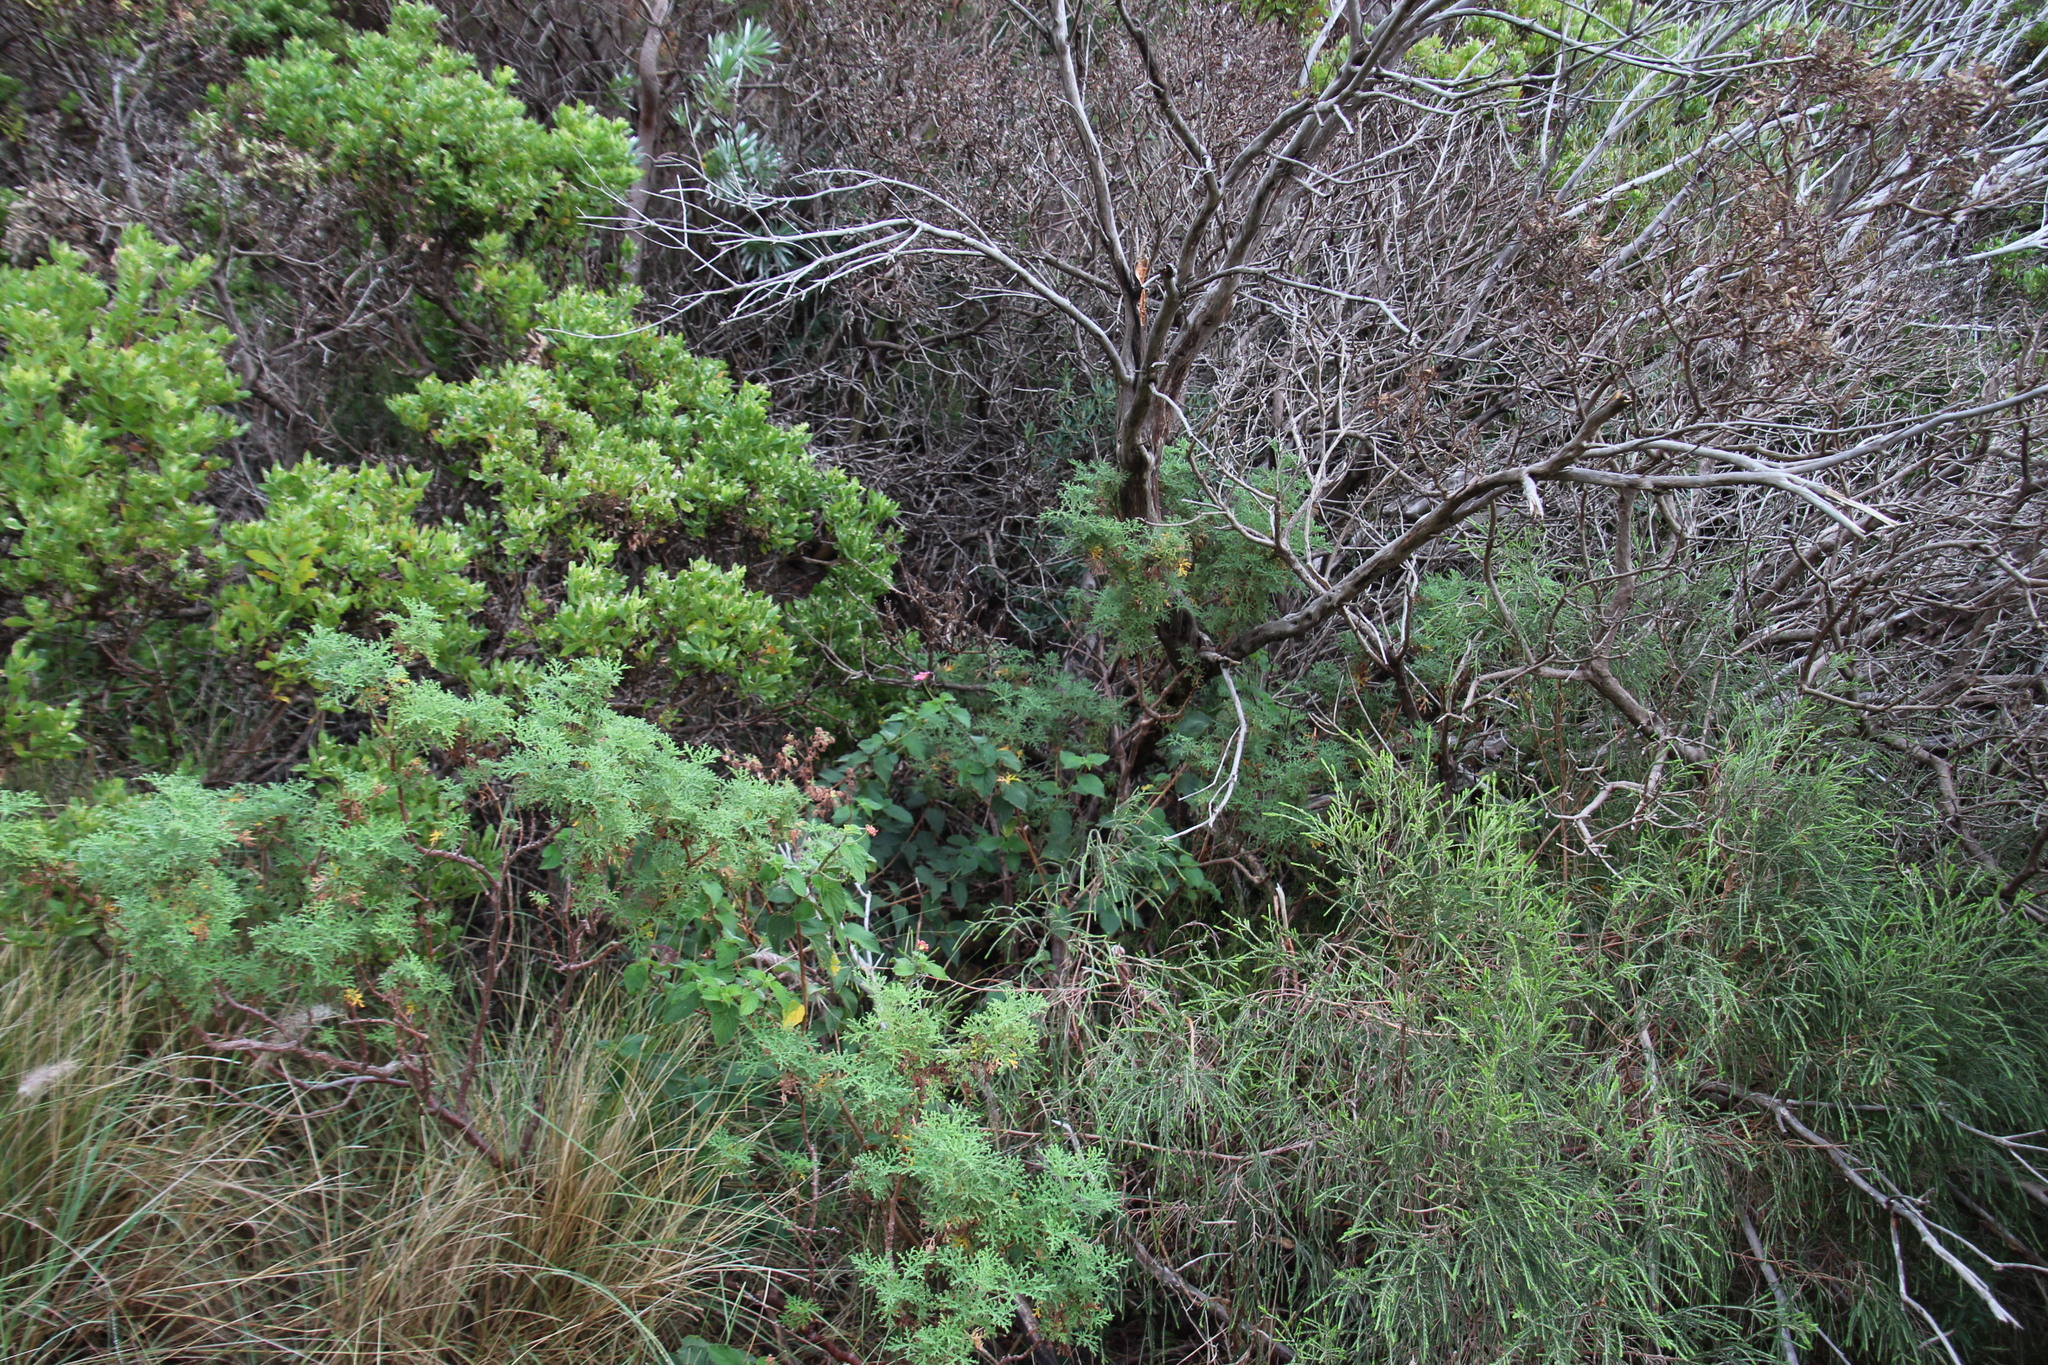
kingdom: Plantae
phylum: Tracheophyta
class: Magnoliopsida
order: Lamiales
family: Verbenaceae
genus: Lantana
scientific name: Lantana camara
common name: Lantana
